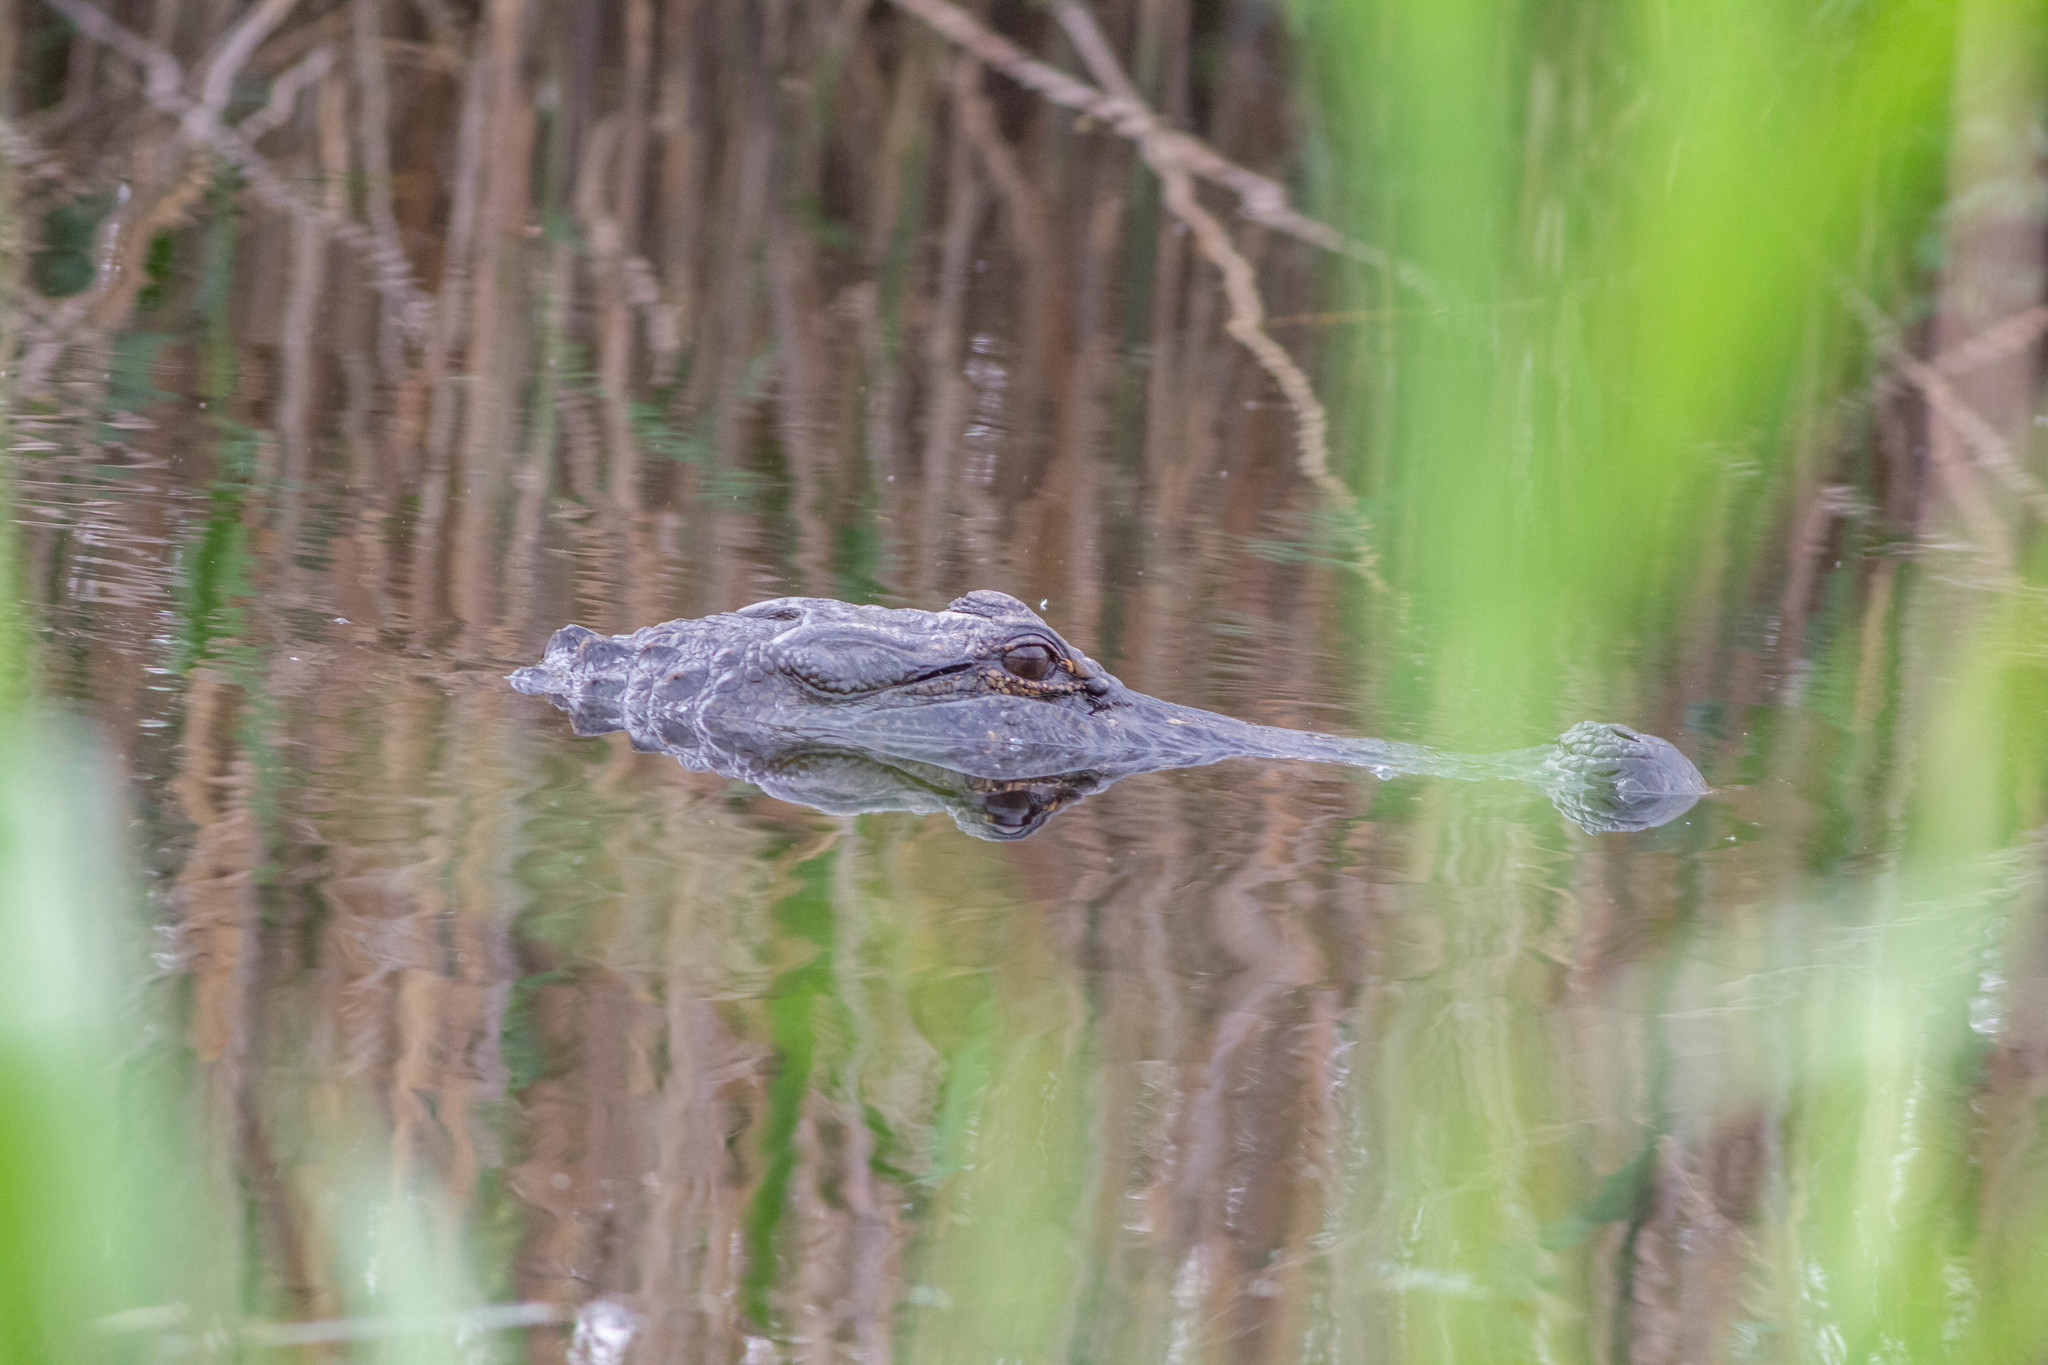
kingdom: Animalia
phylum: Chordata
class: Crocodylia
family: Alligatoridae
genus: Alligator
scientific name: Alligator mississippiensis
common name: American alligator
